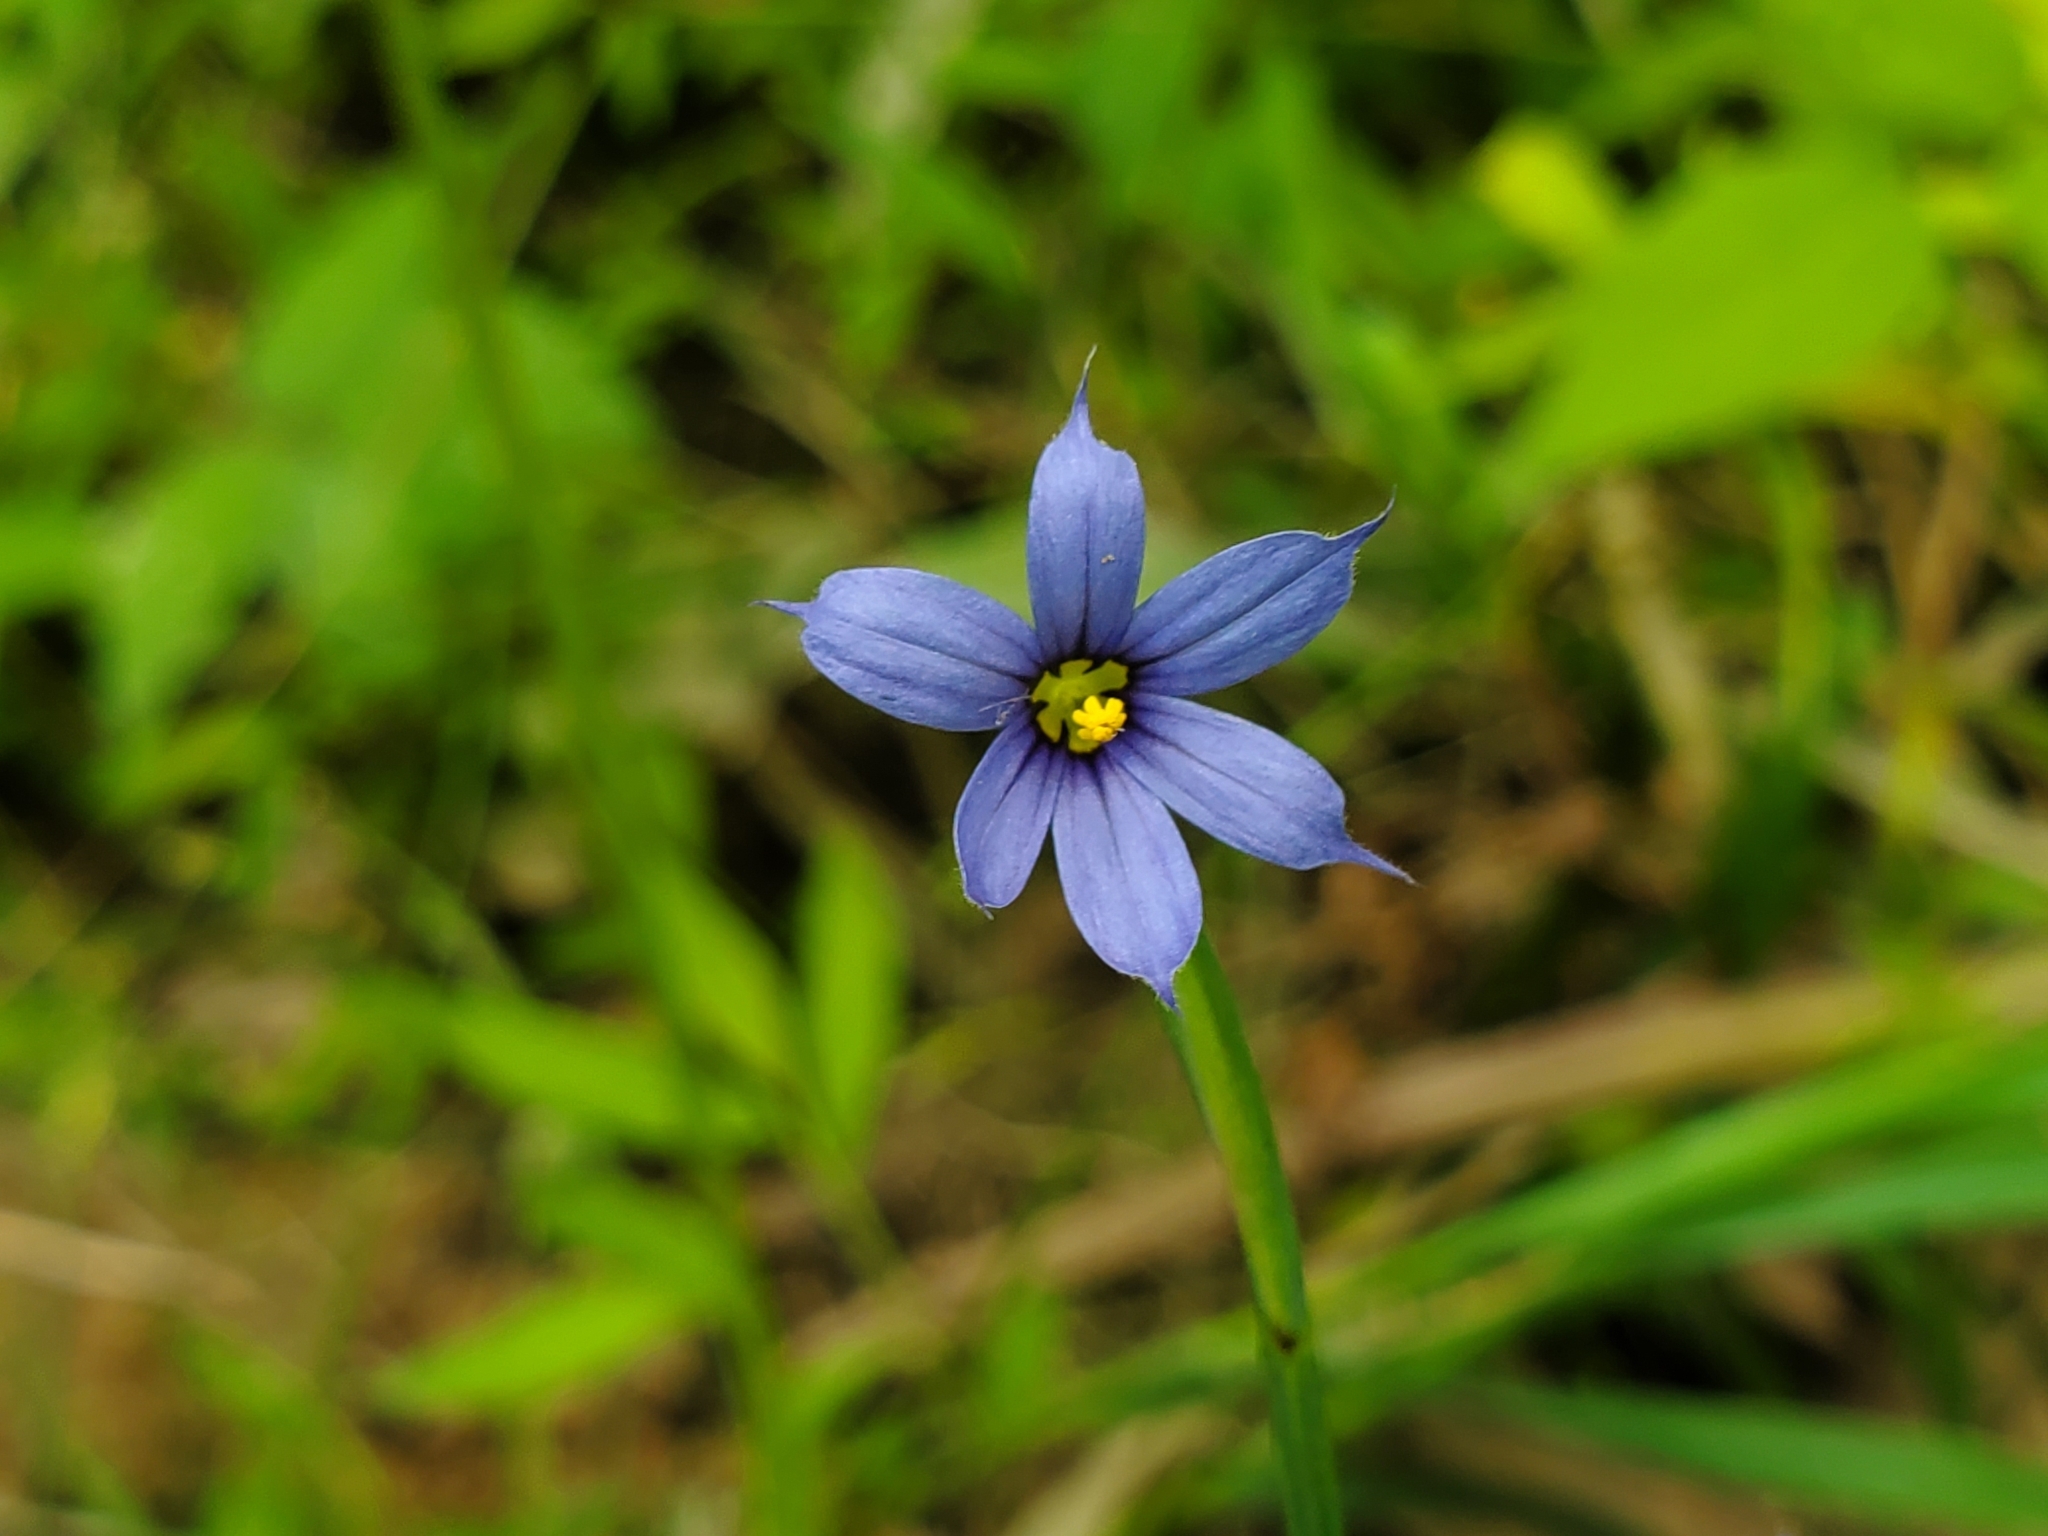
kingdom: Plantae
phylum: Tracheophyta
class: Liliopsida
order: Asparagales
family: Iridaceae
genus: Sisyrinchium
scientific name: Sisyrinchium angustifolium
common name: Narrow-leaf blue-eyed-grass
